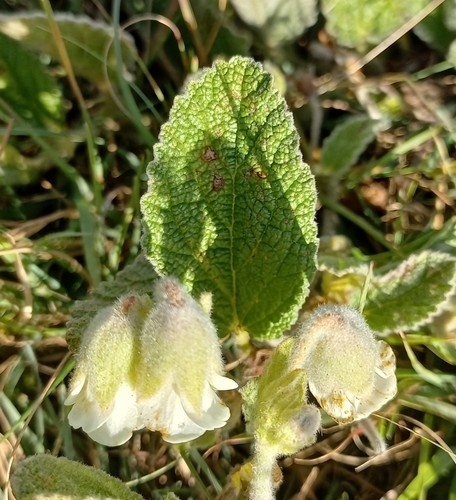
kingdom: Plantae
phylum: Tracheophyta
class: Magnoliopsida
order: Malvales
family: Malvaceae
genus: Hermannia
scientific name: Hermannia geniculata
